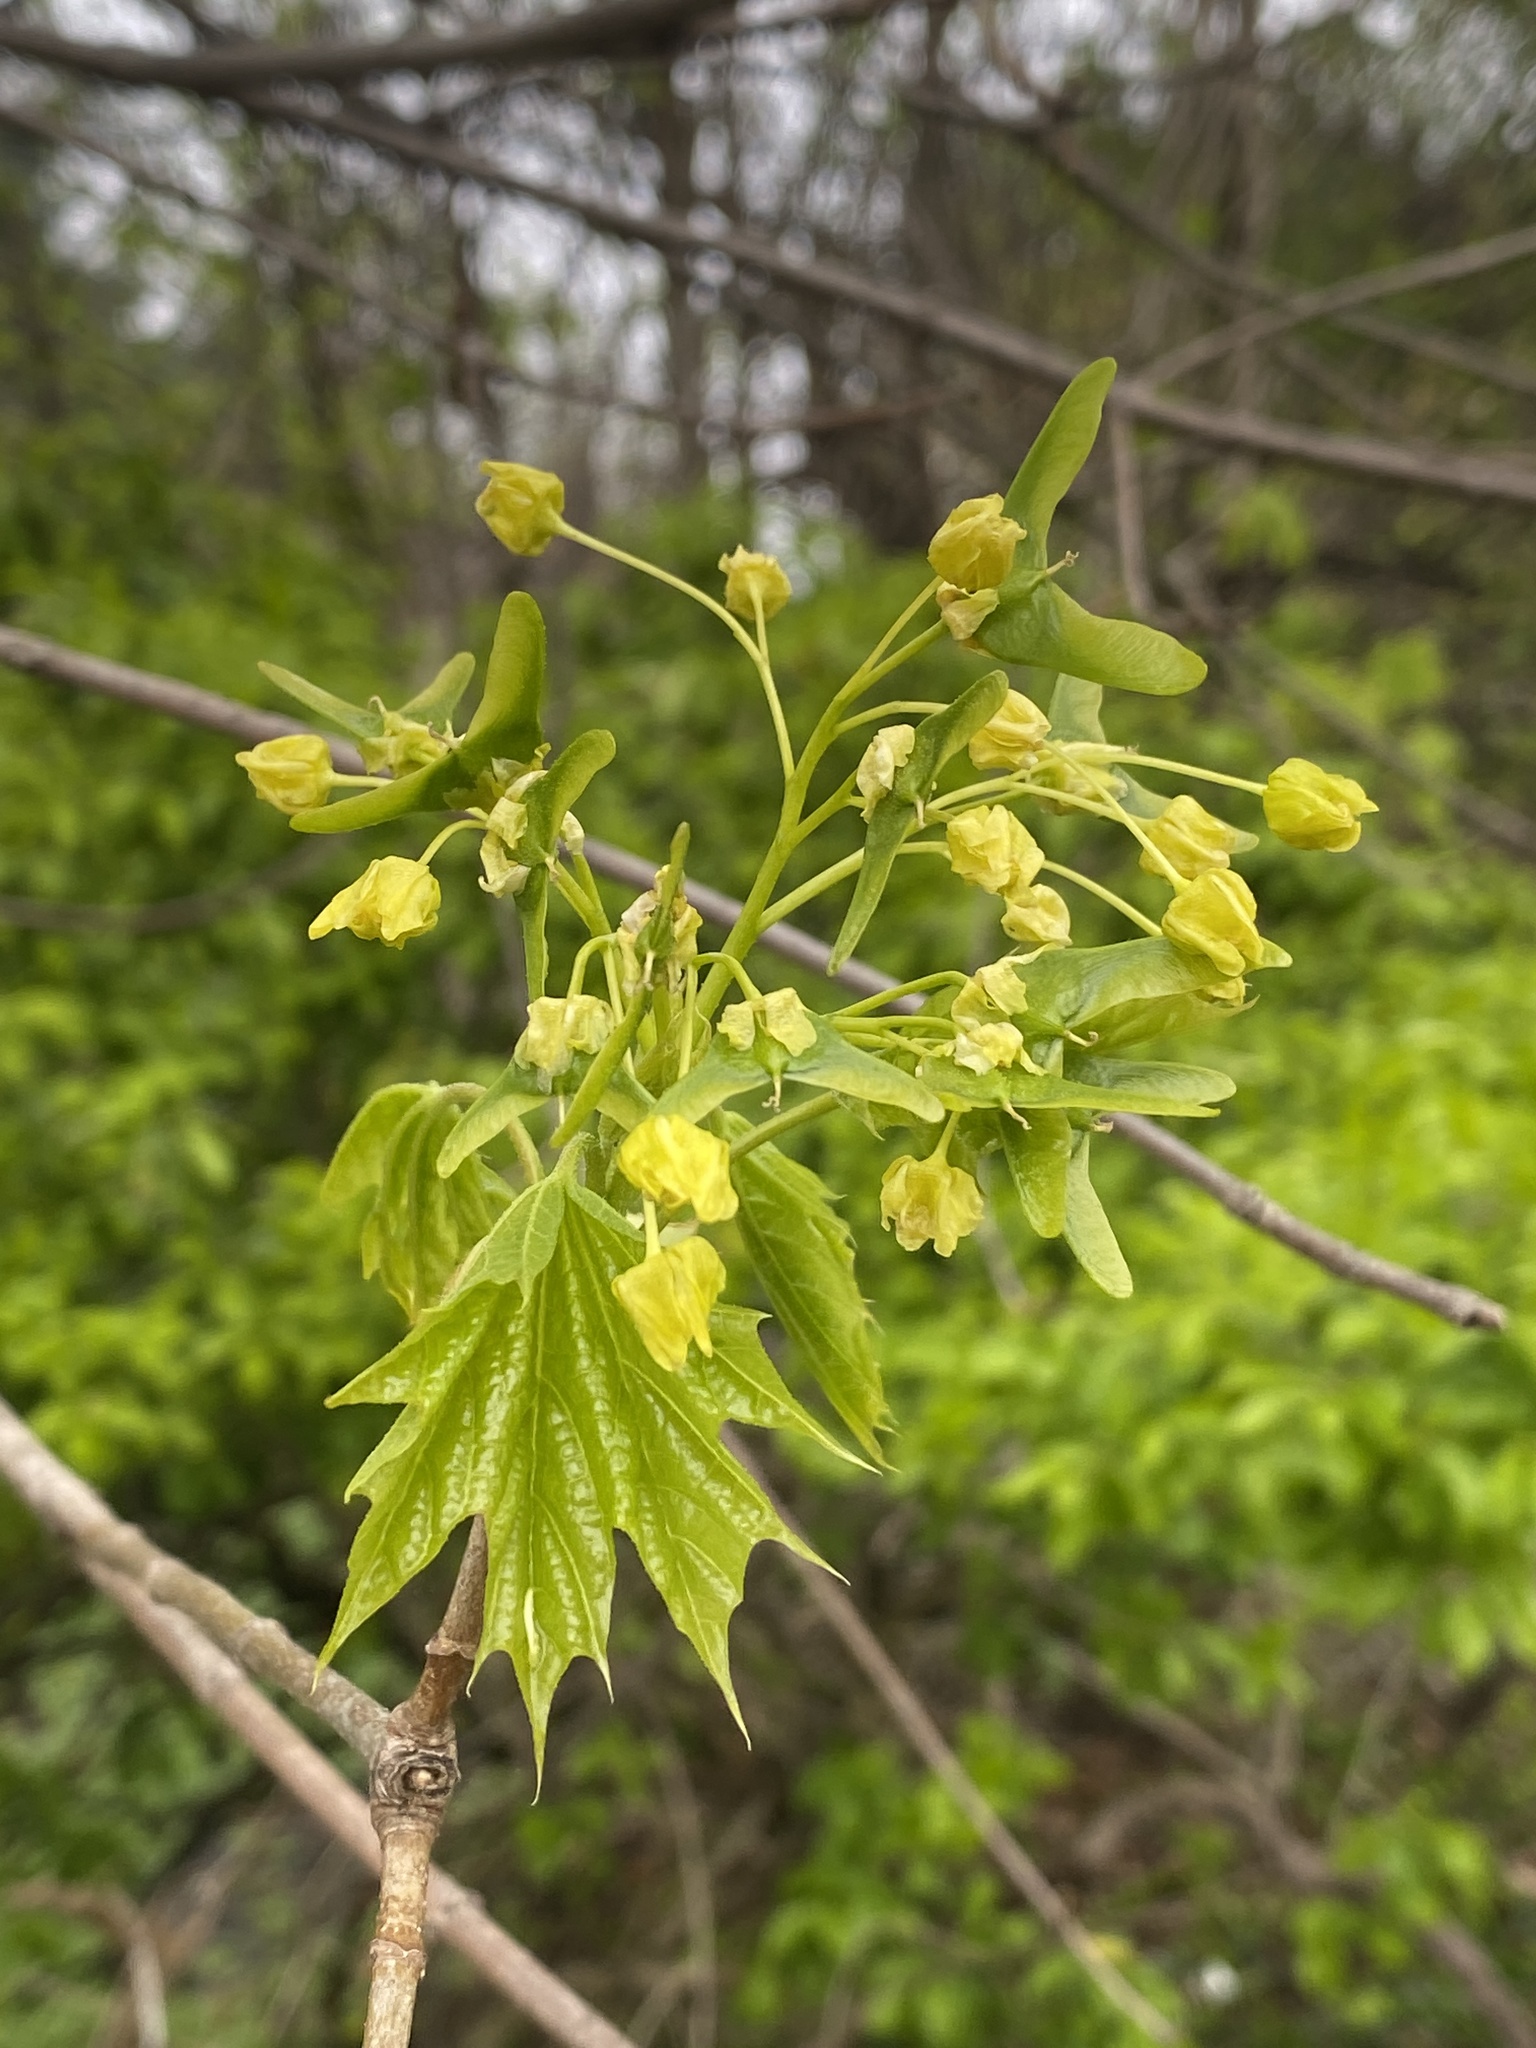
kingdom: Plantae
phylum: Tracheophyta
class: Magnoliopsida
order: Sapindales
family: Sapindaceae
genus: Acer
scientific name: Acer platanoides
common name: Norway maple
